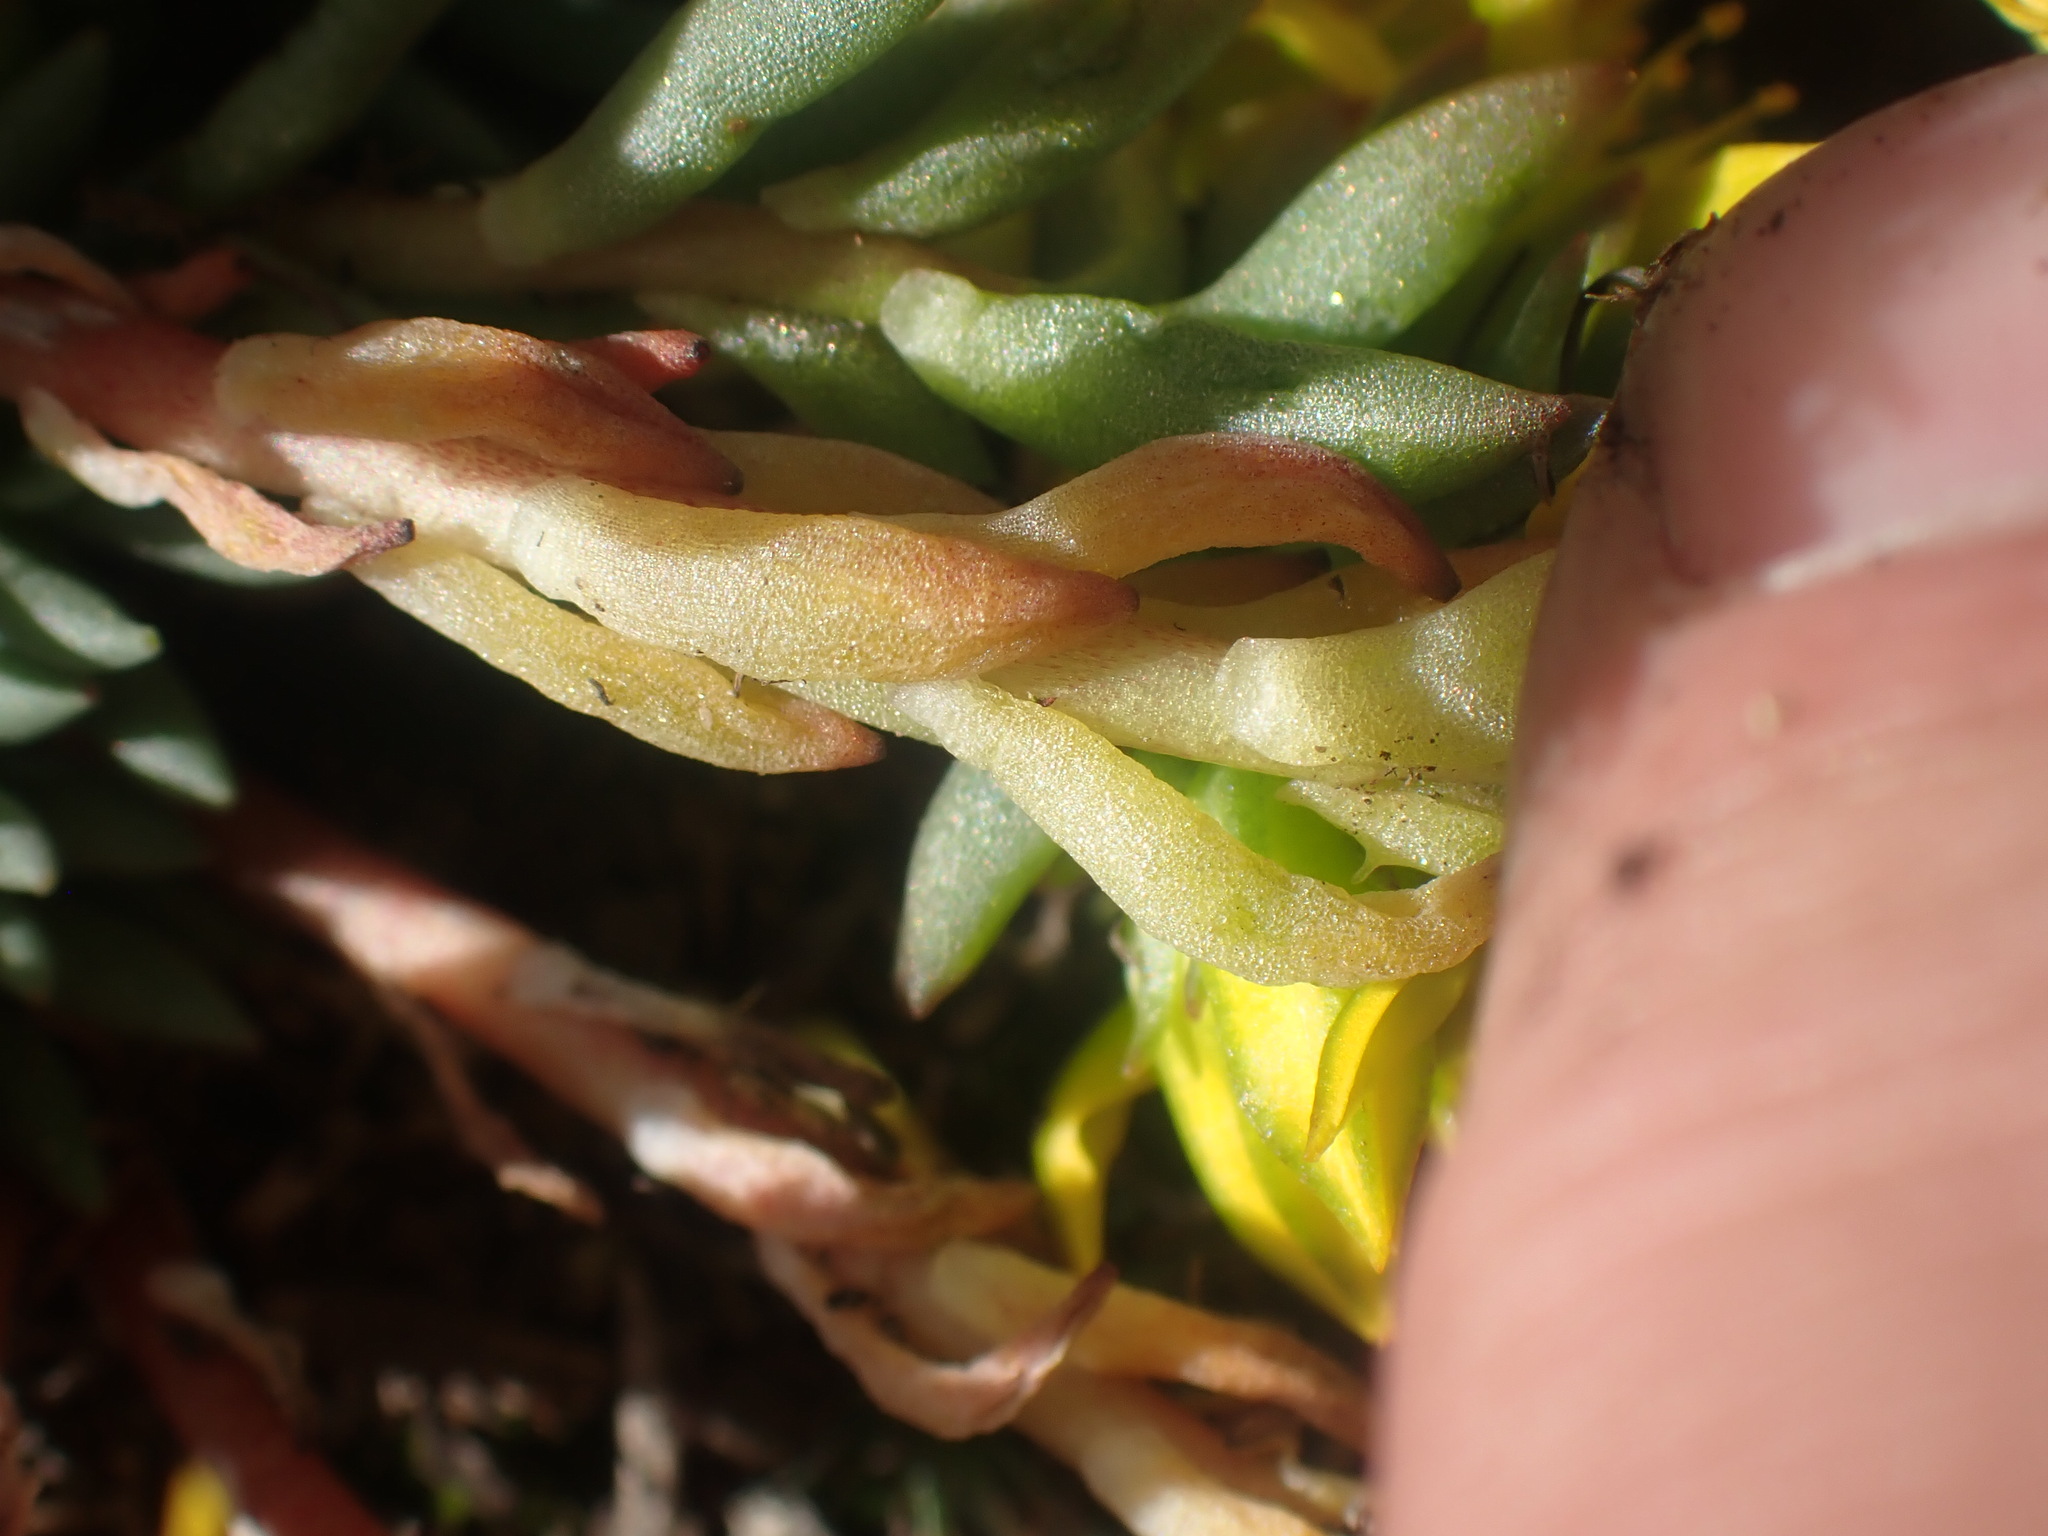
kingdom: Plantae
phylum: Tracheophyta
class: Magnoliopsida
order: Saxifragales
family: Crassulaceae
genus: Sedum
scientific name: Sedum lanceolatum
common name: Common stonecrop
